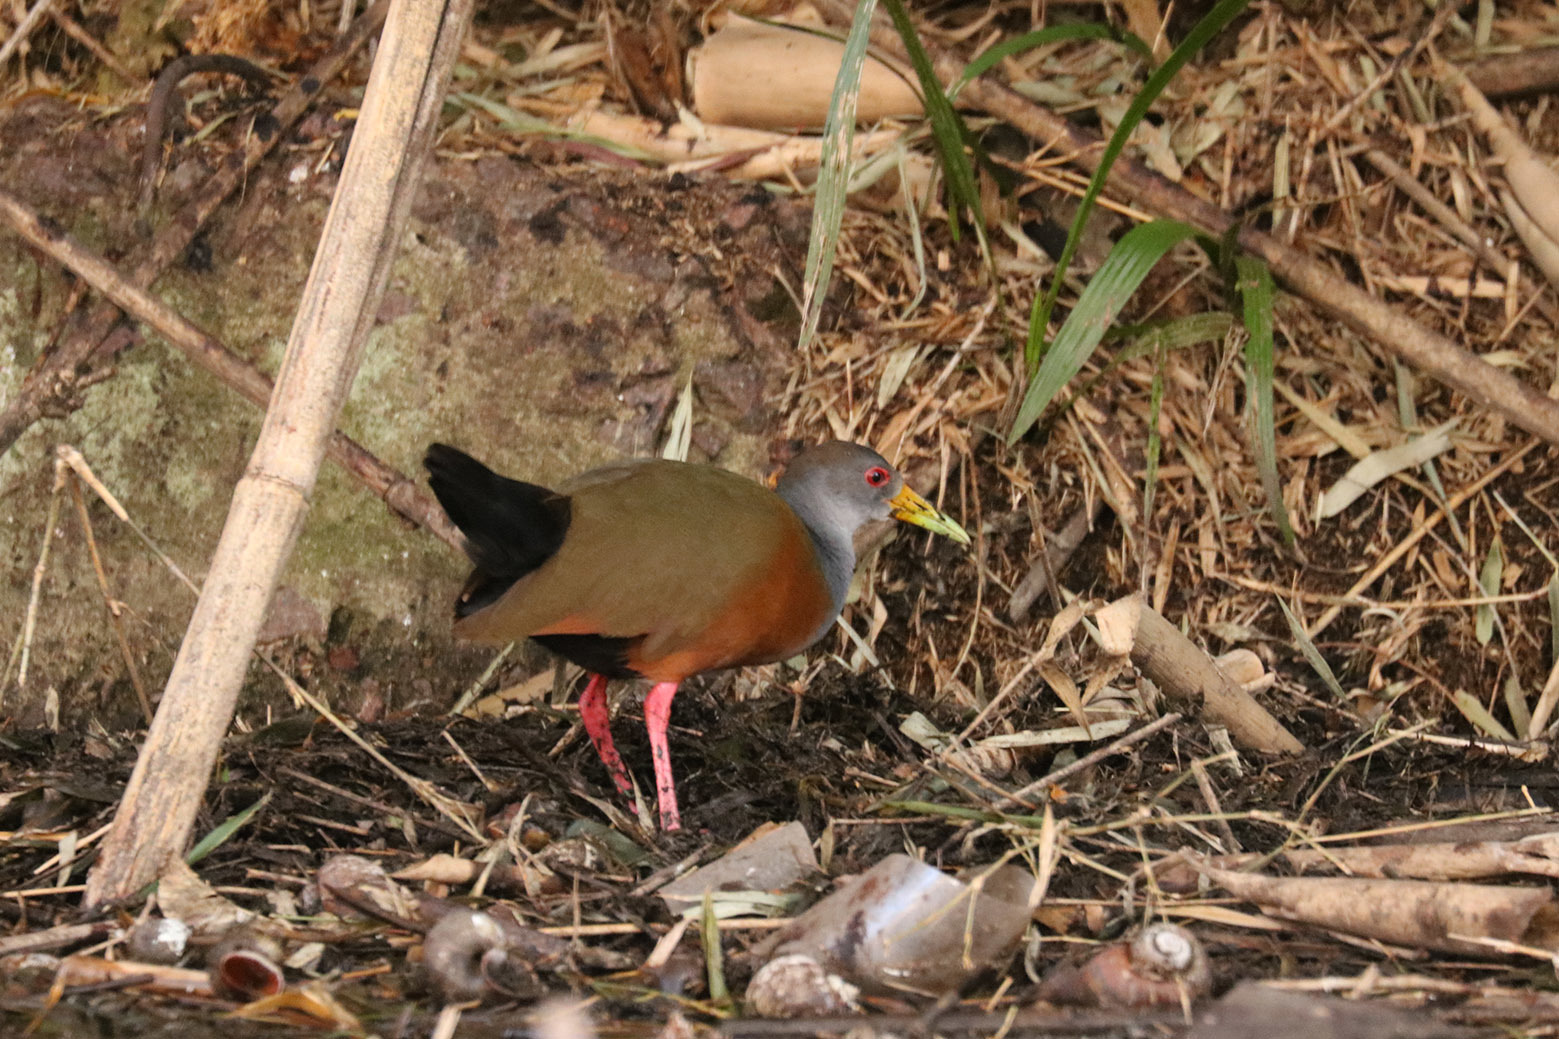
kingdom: Animalia
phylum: Chordata
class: Aves
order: Gruiformes
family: Rallidae
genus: Aramides
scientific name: Aramides cajanea
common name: Gray-necked wood-rail
